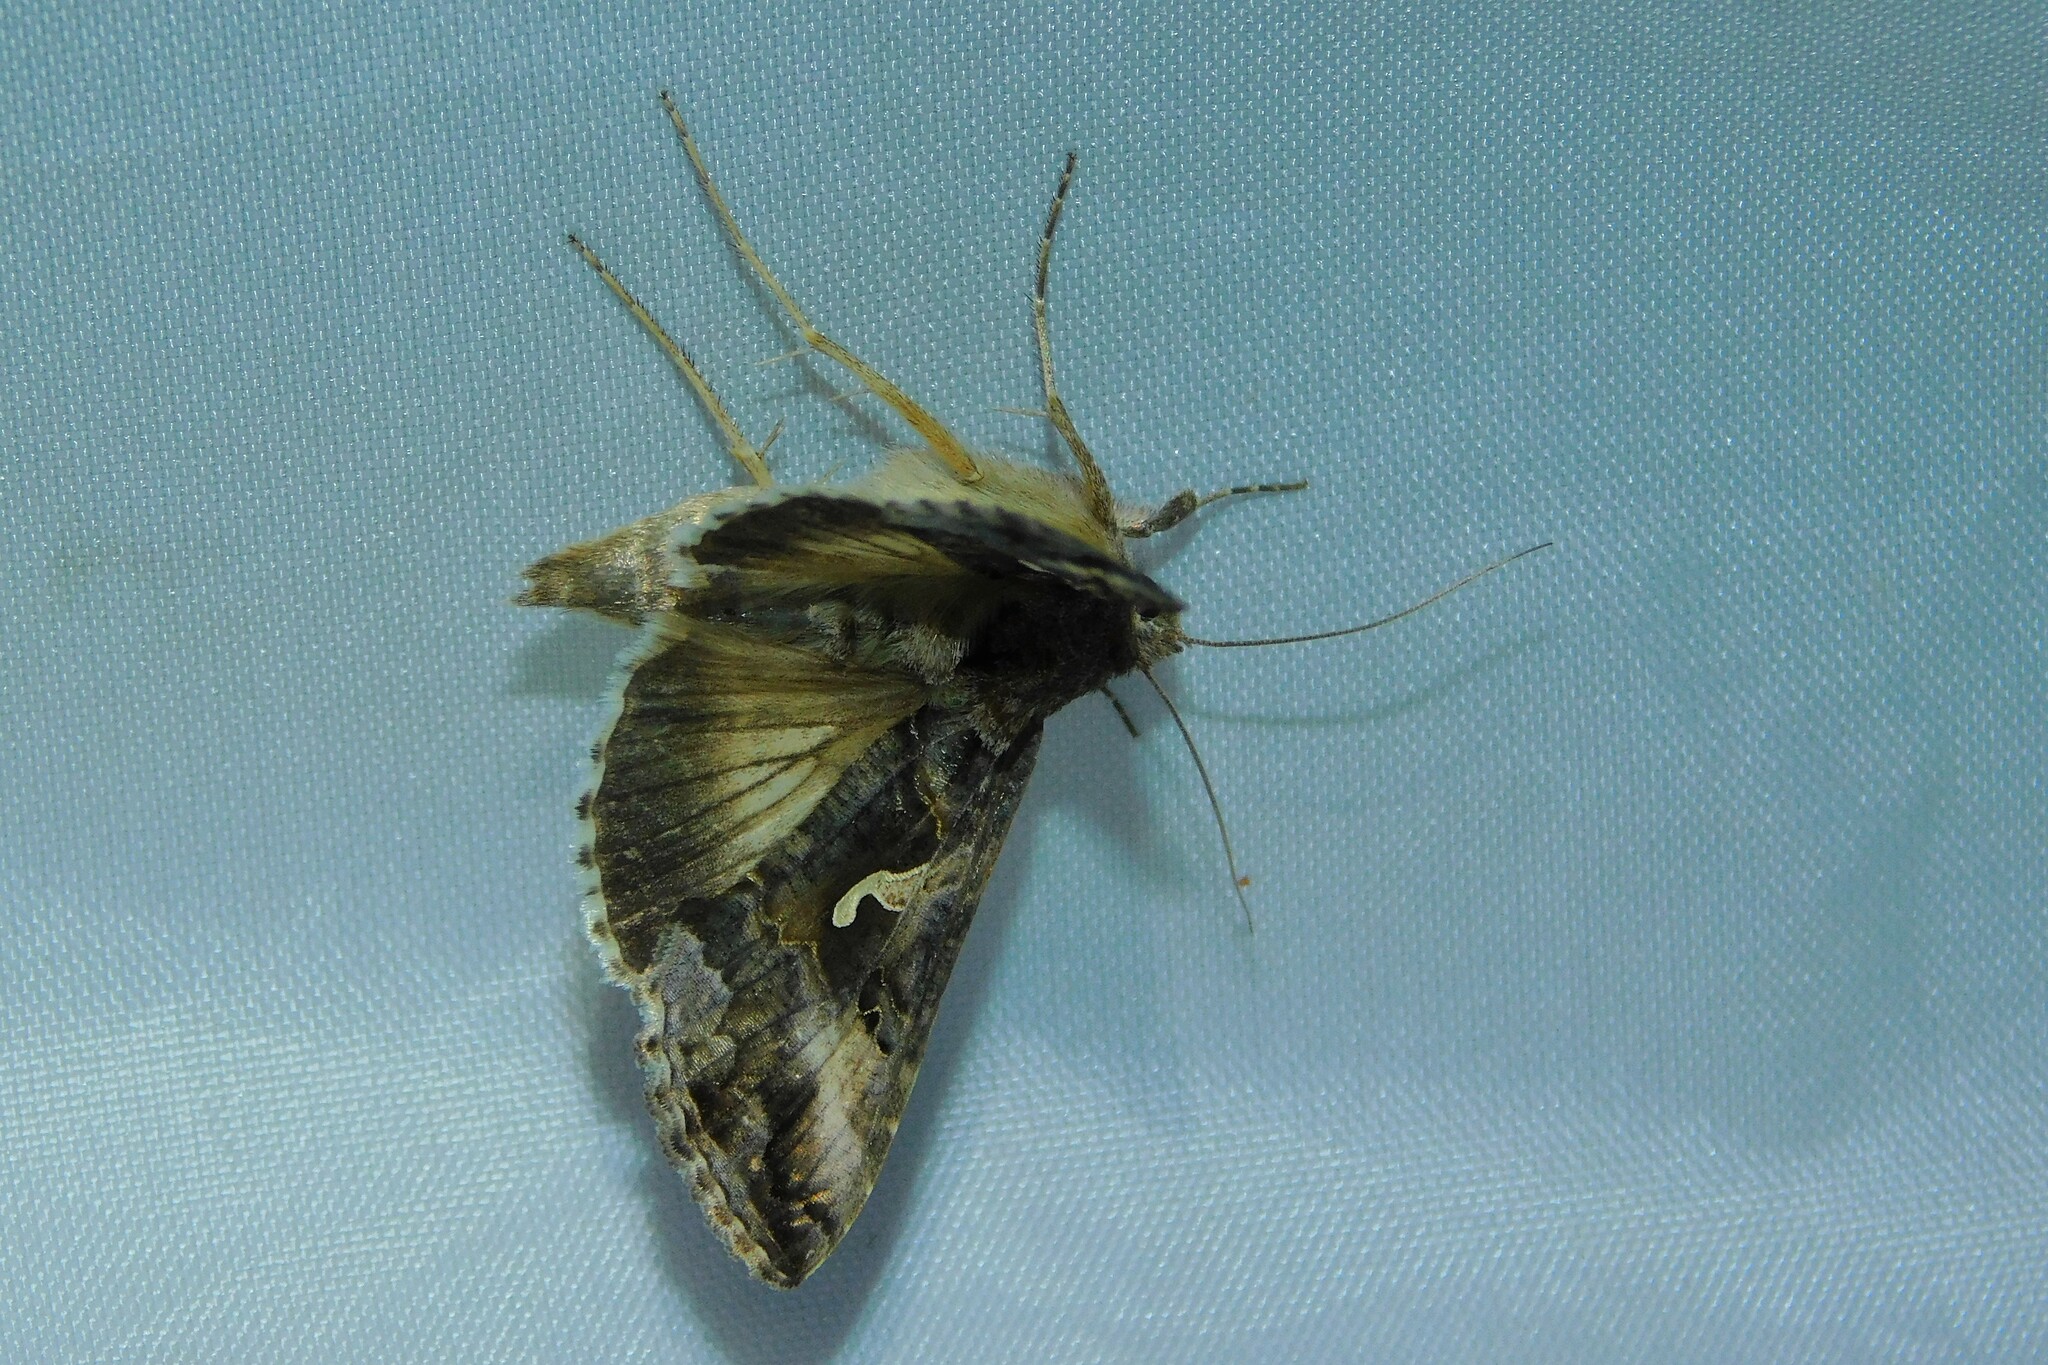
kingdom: Animalia
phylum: Arthropoda
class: Insecta
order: Lepidoptera
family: Noctuidae
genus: Autographa
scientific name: Autographa gamma
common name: Silver y
